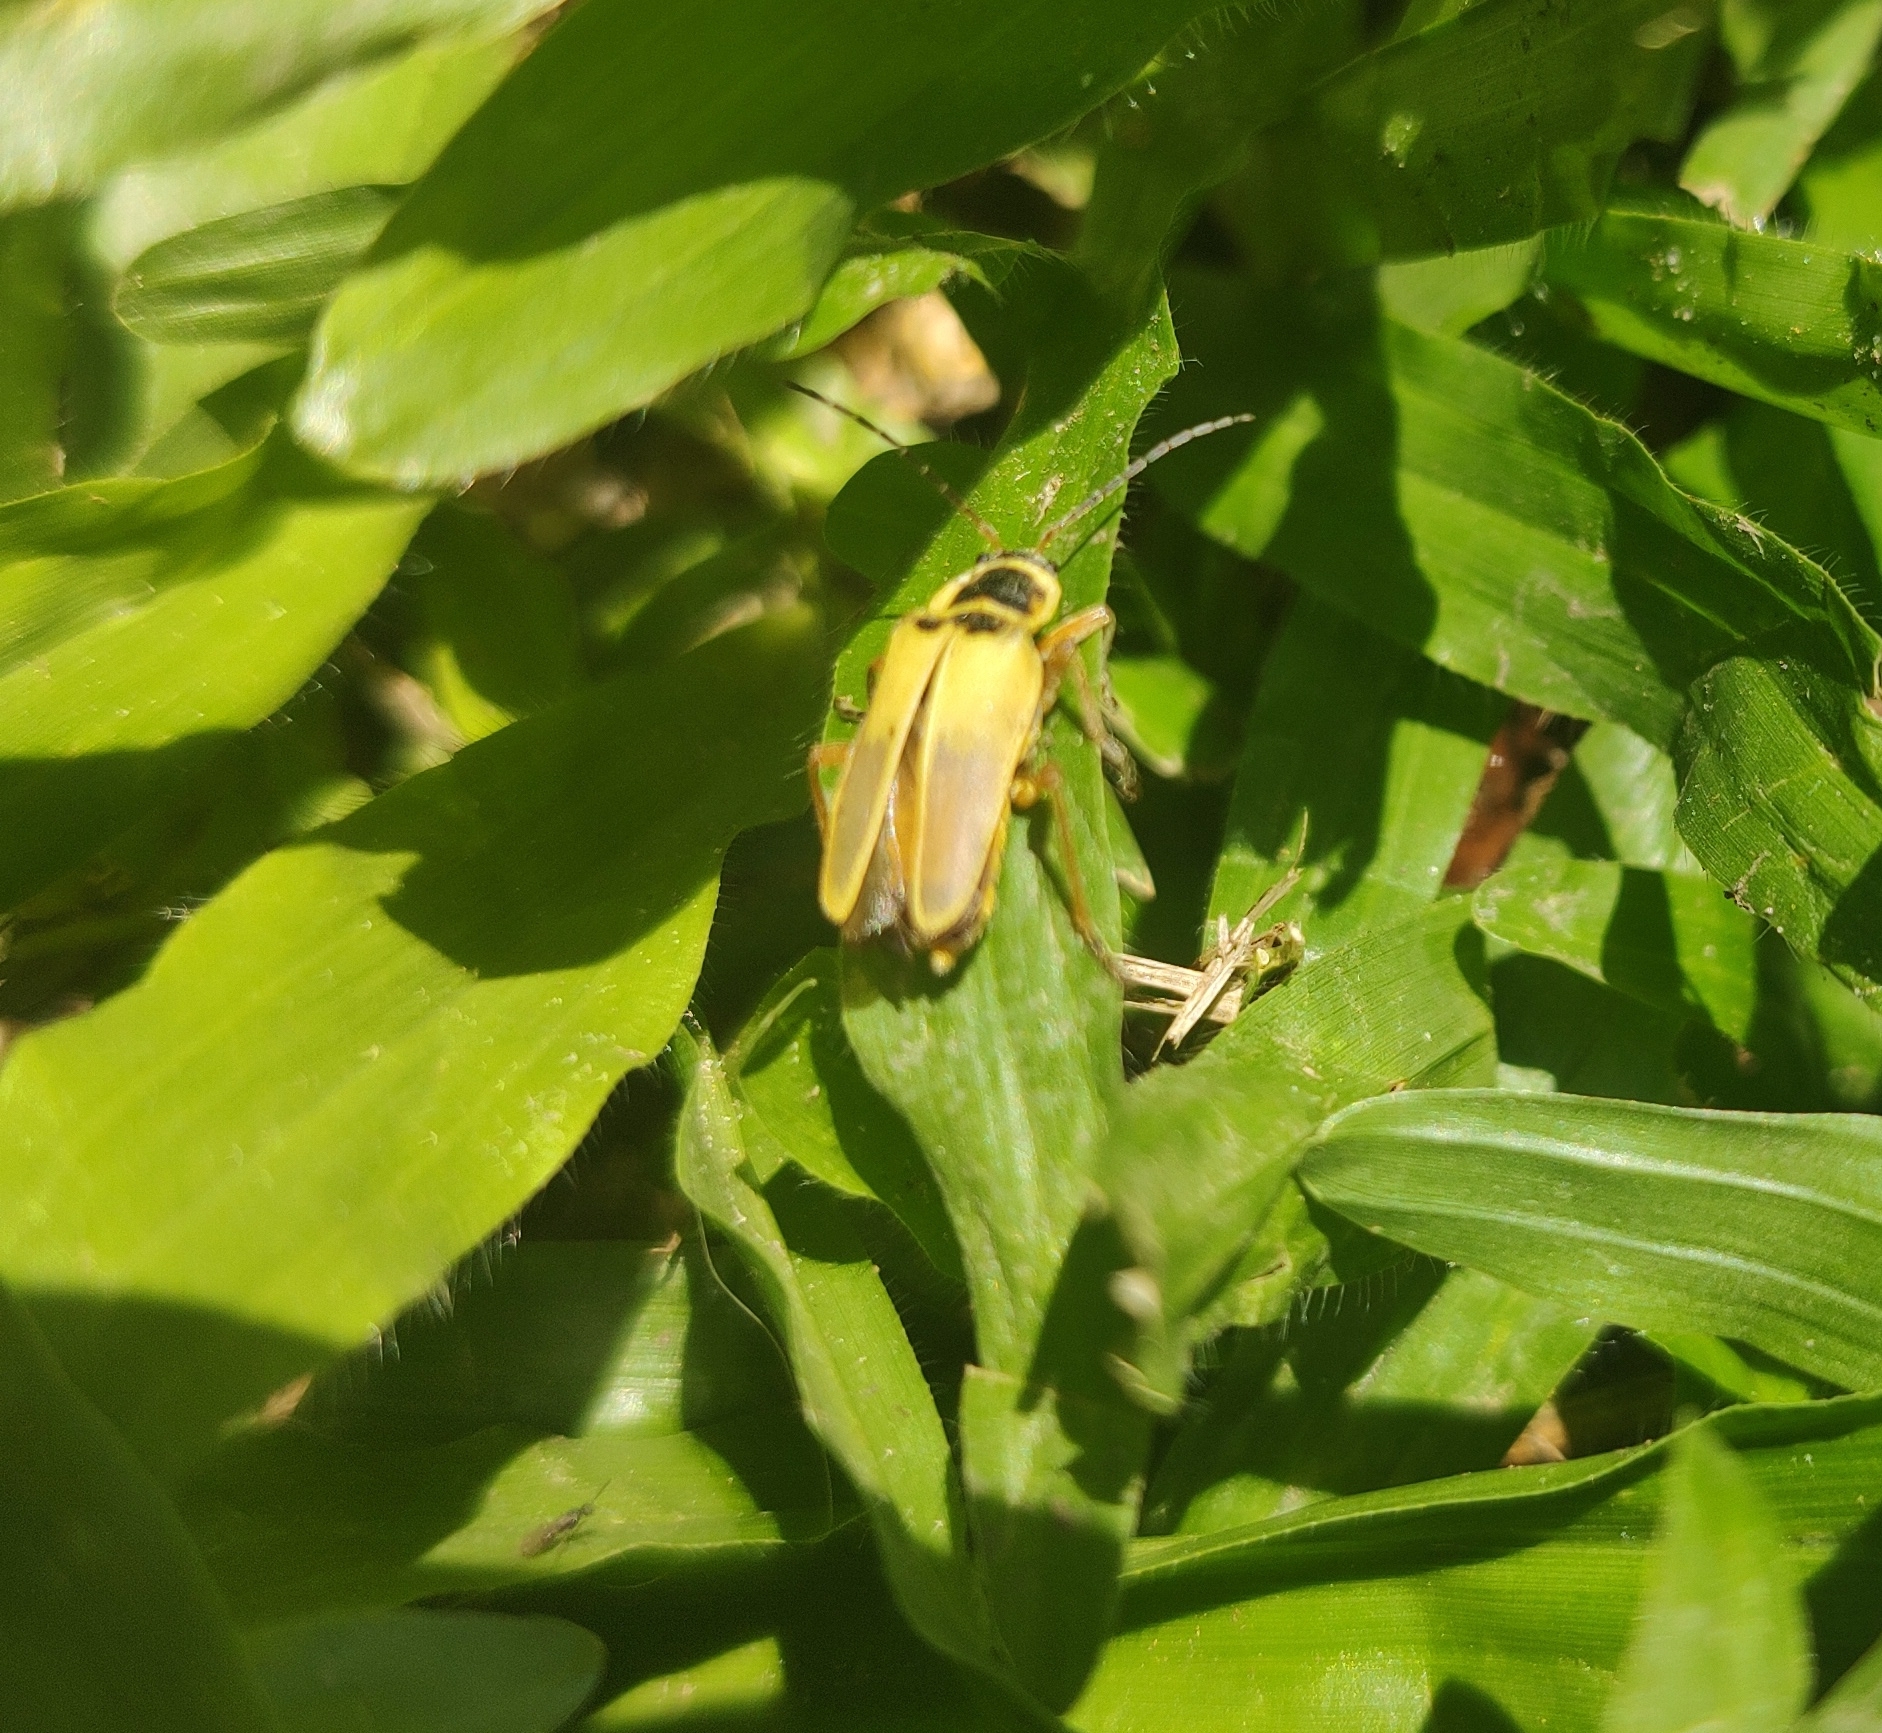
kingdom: Animalia
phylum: Arthropoda
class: Insecta
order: Coleoptera
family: Cantharidae
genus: Chauliognathus
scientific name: Chauliognathus
